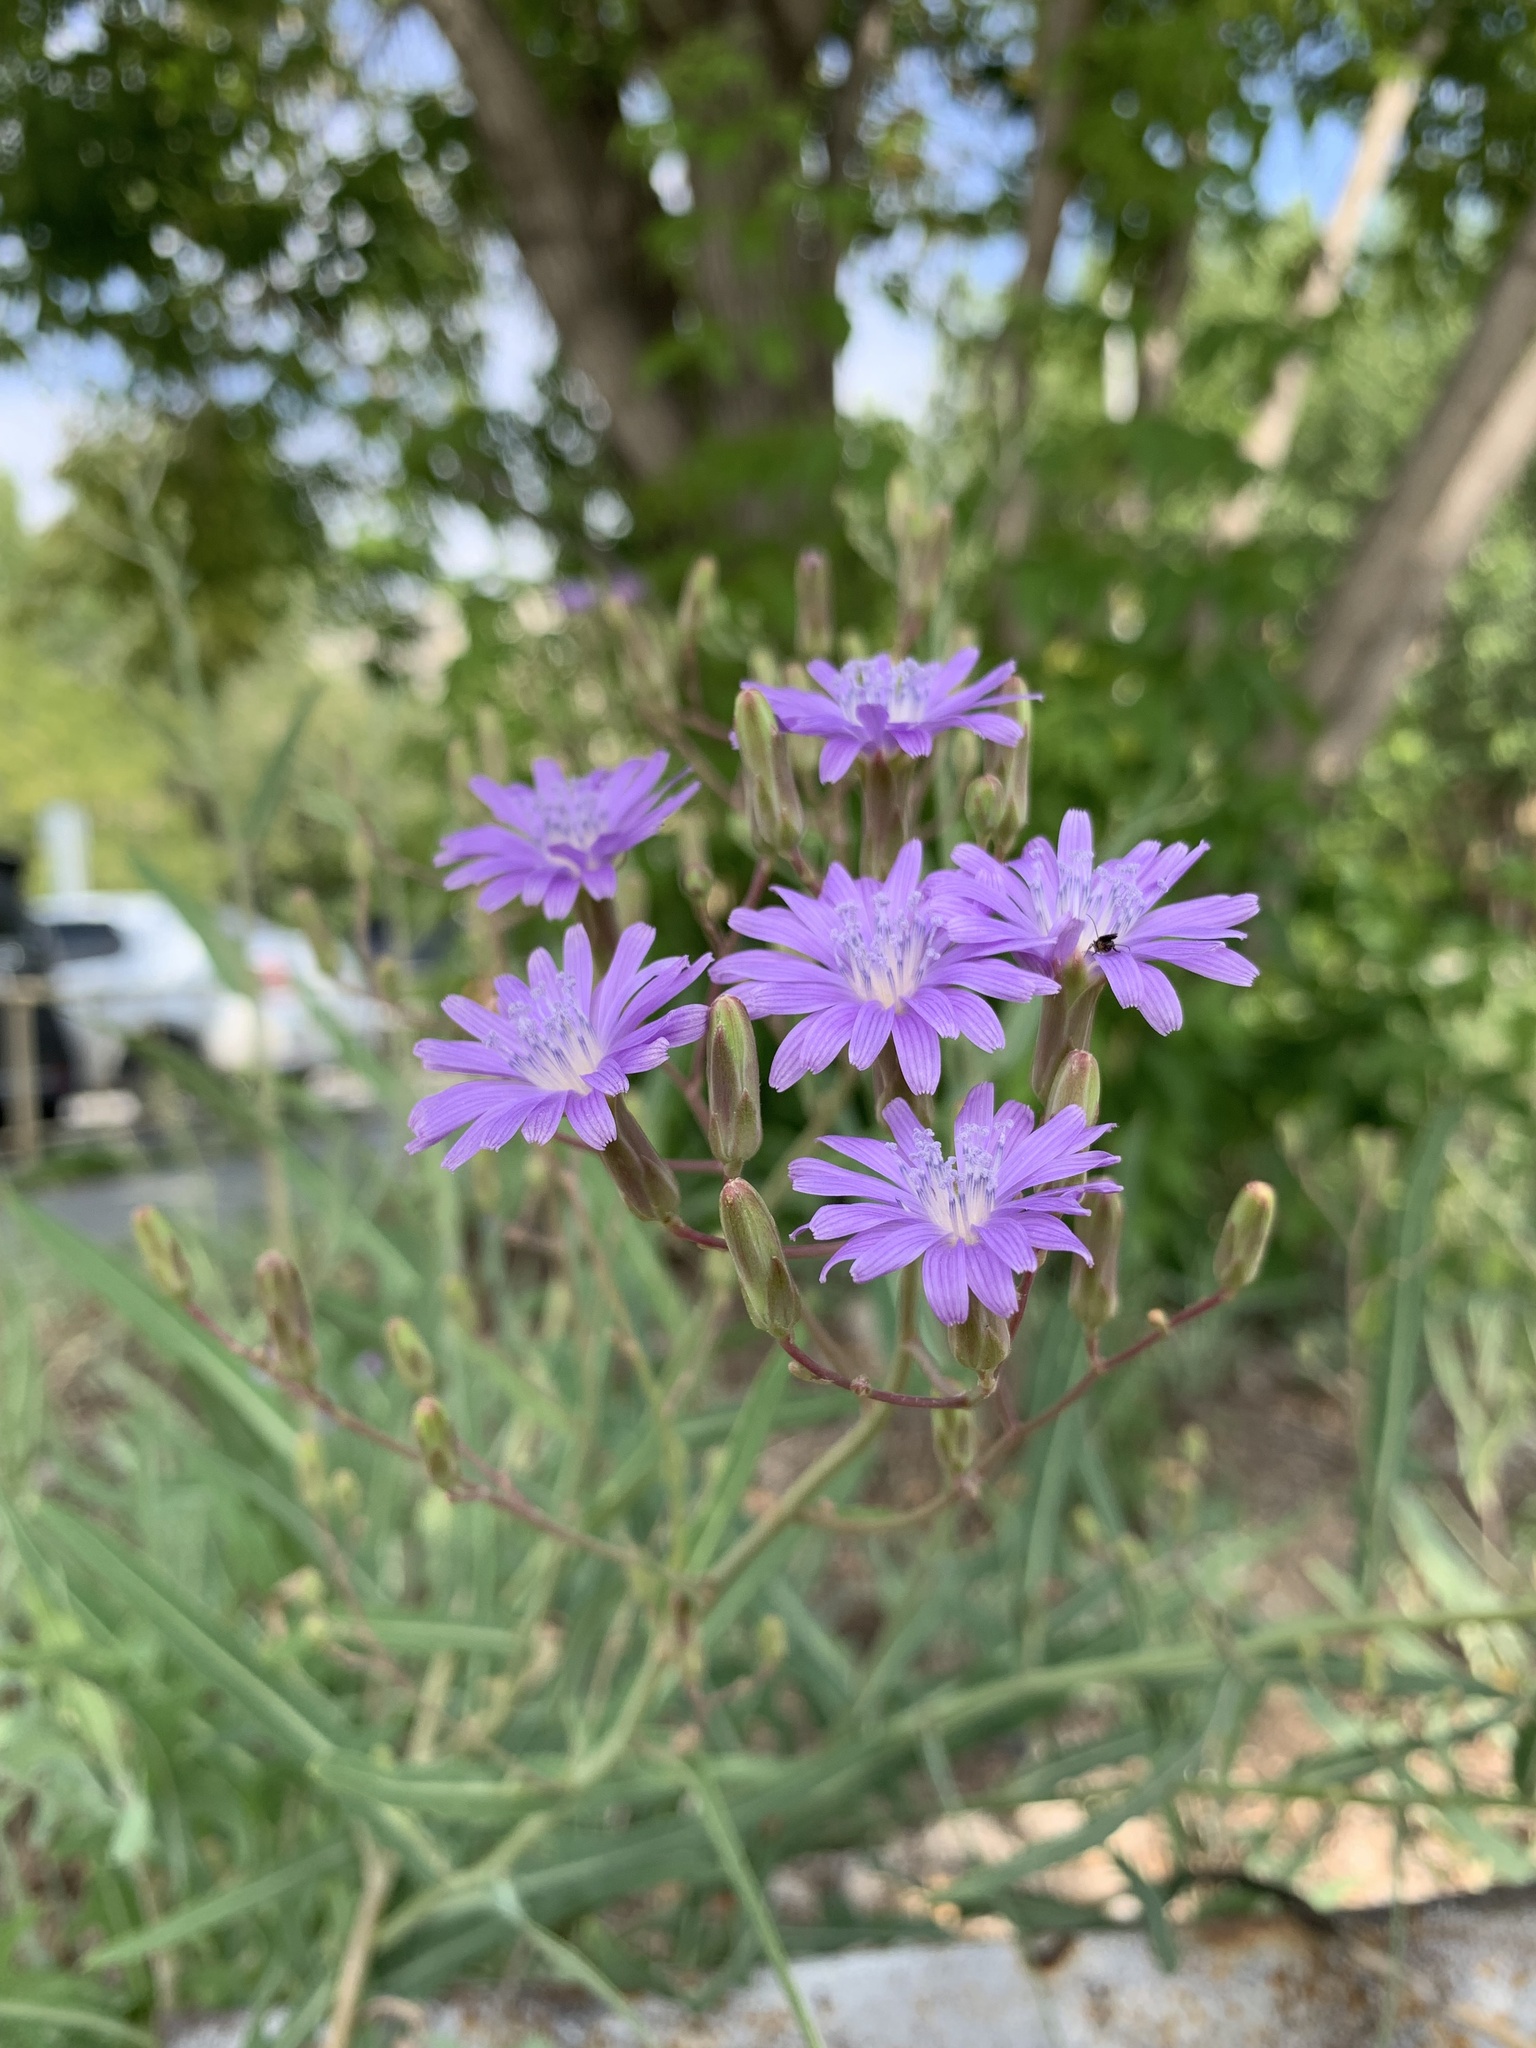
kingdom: Plantae
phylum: Tracheophyta
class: Magnoliopsida
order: Asterales
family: Asteraceae
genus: Lactuca
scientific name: Lactuca tatarica
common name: Blue lettuce
